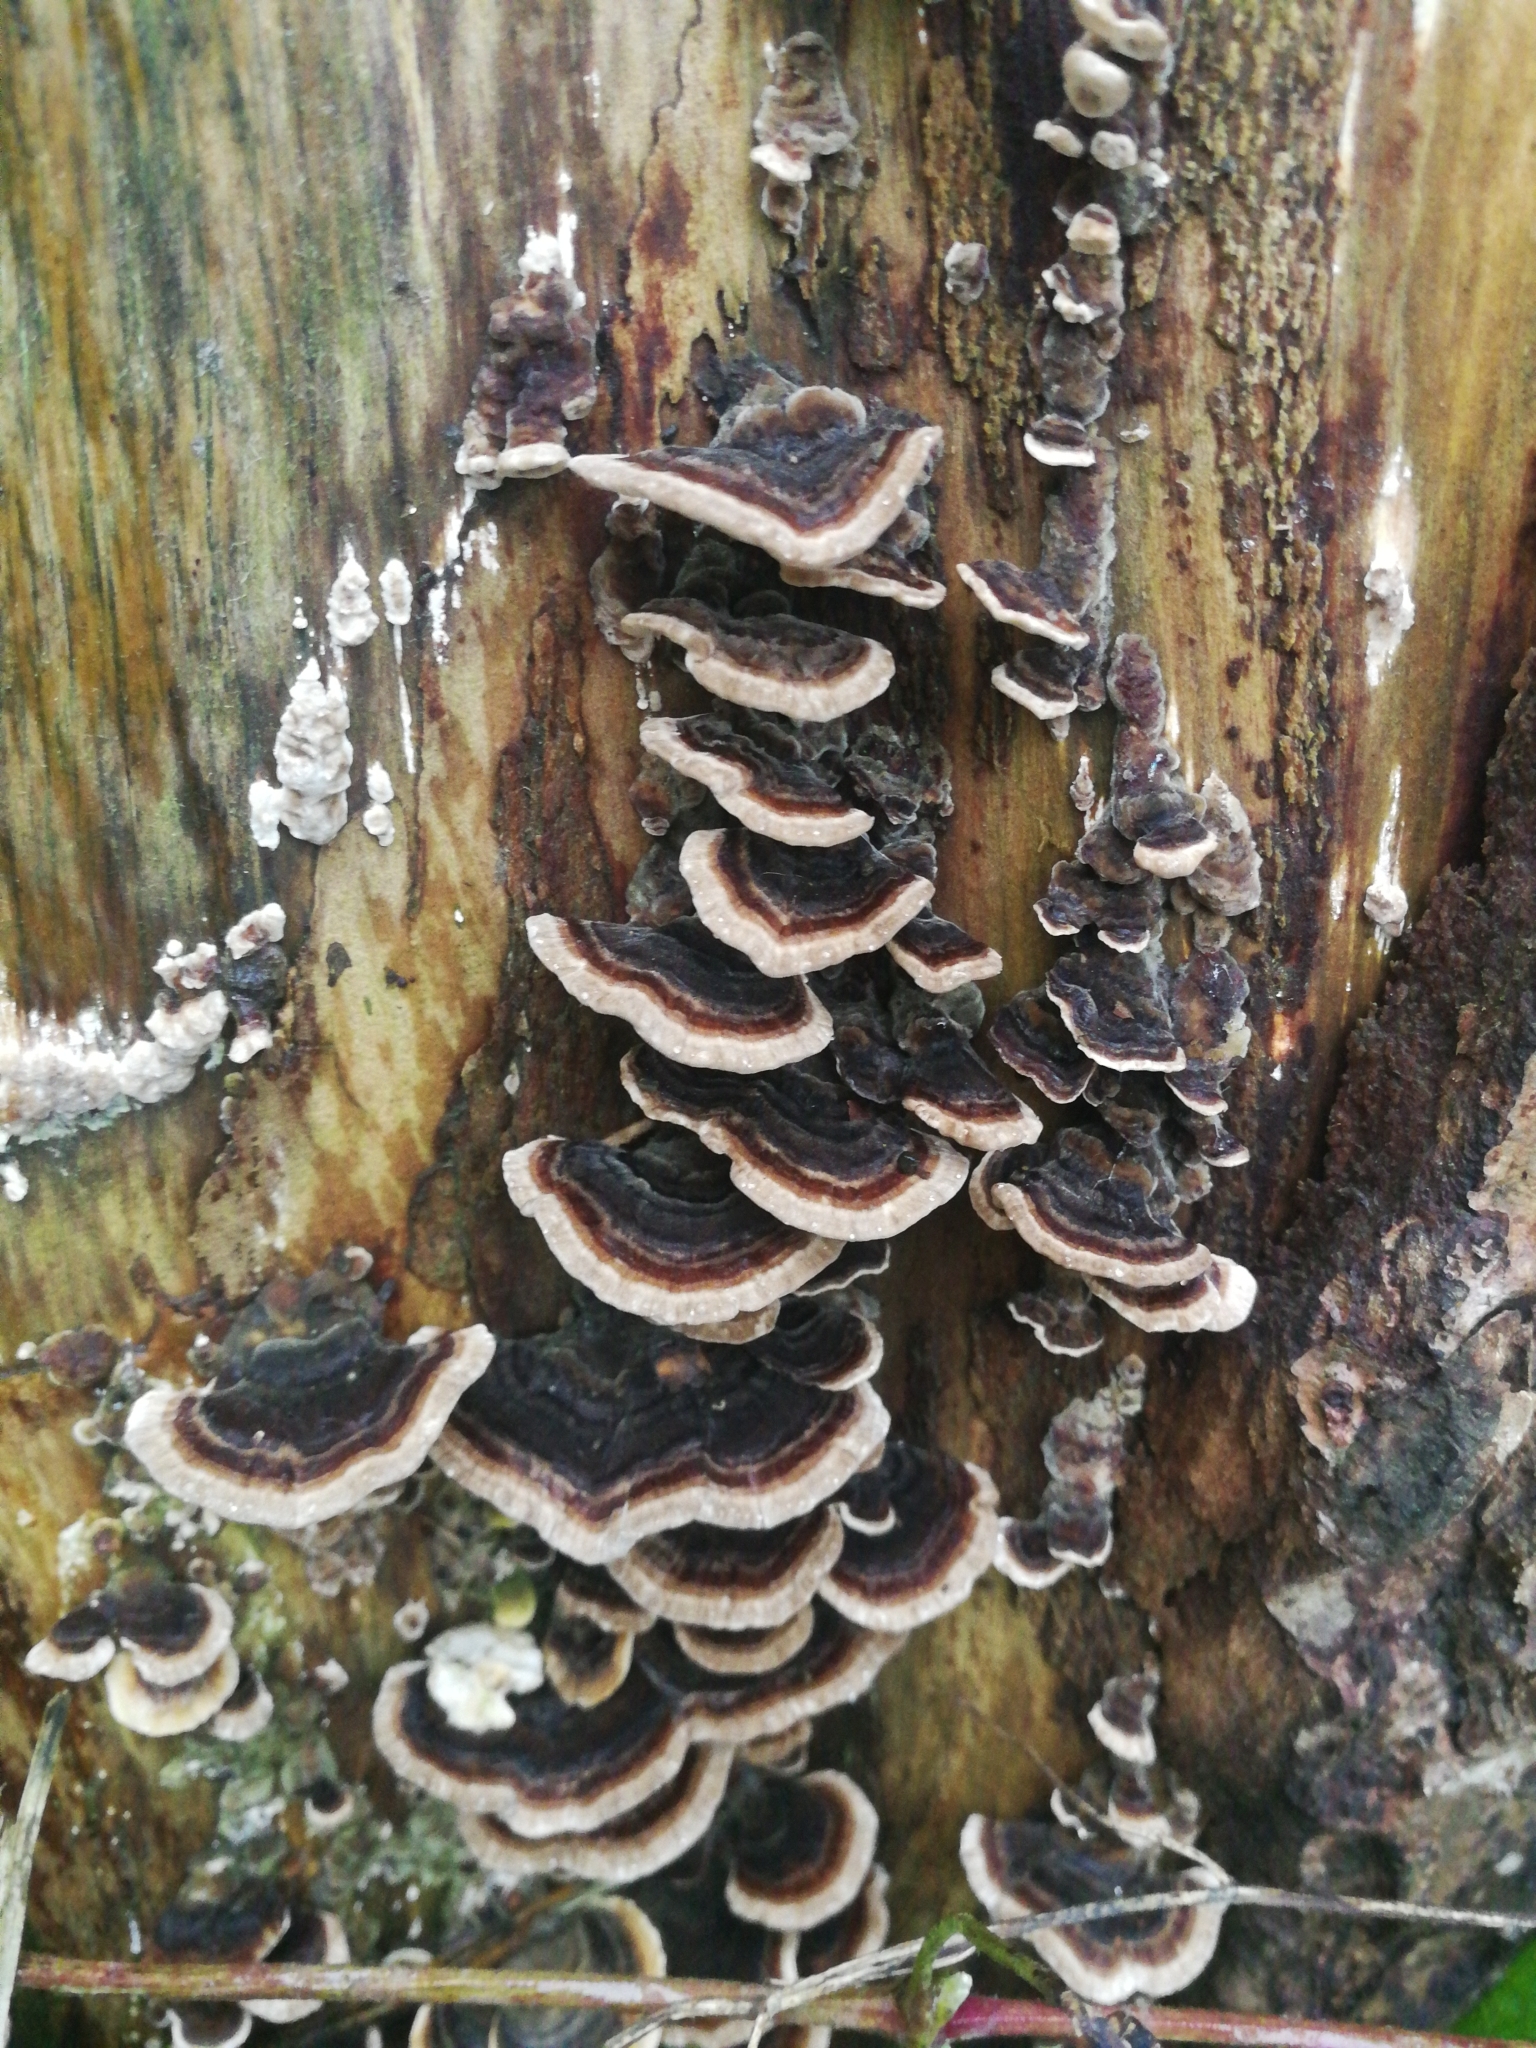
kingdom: Fungi
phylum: Basidiomycota
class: Agaricomycetes
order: Polyporales
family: Polyporaceae
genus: Trametes
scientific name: Trametes versicolor
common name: Turkeytail
